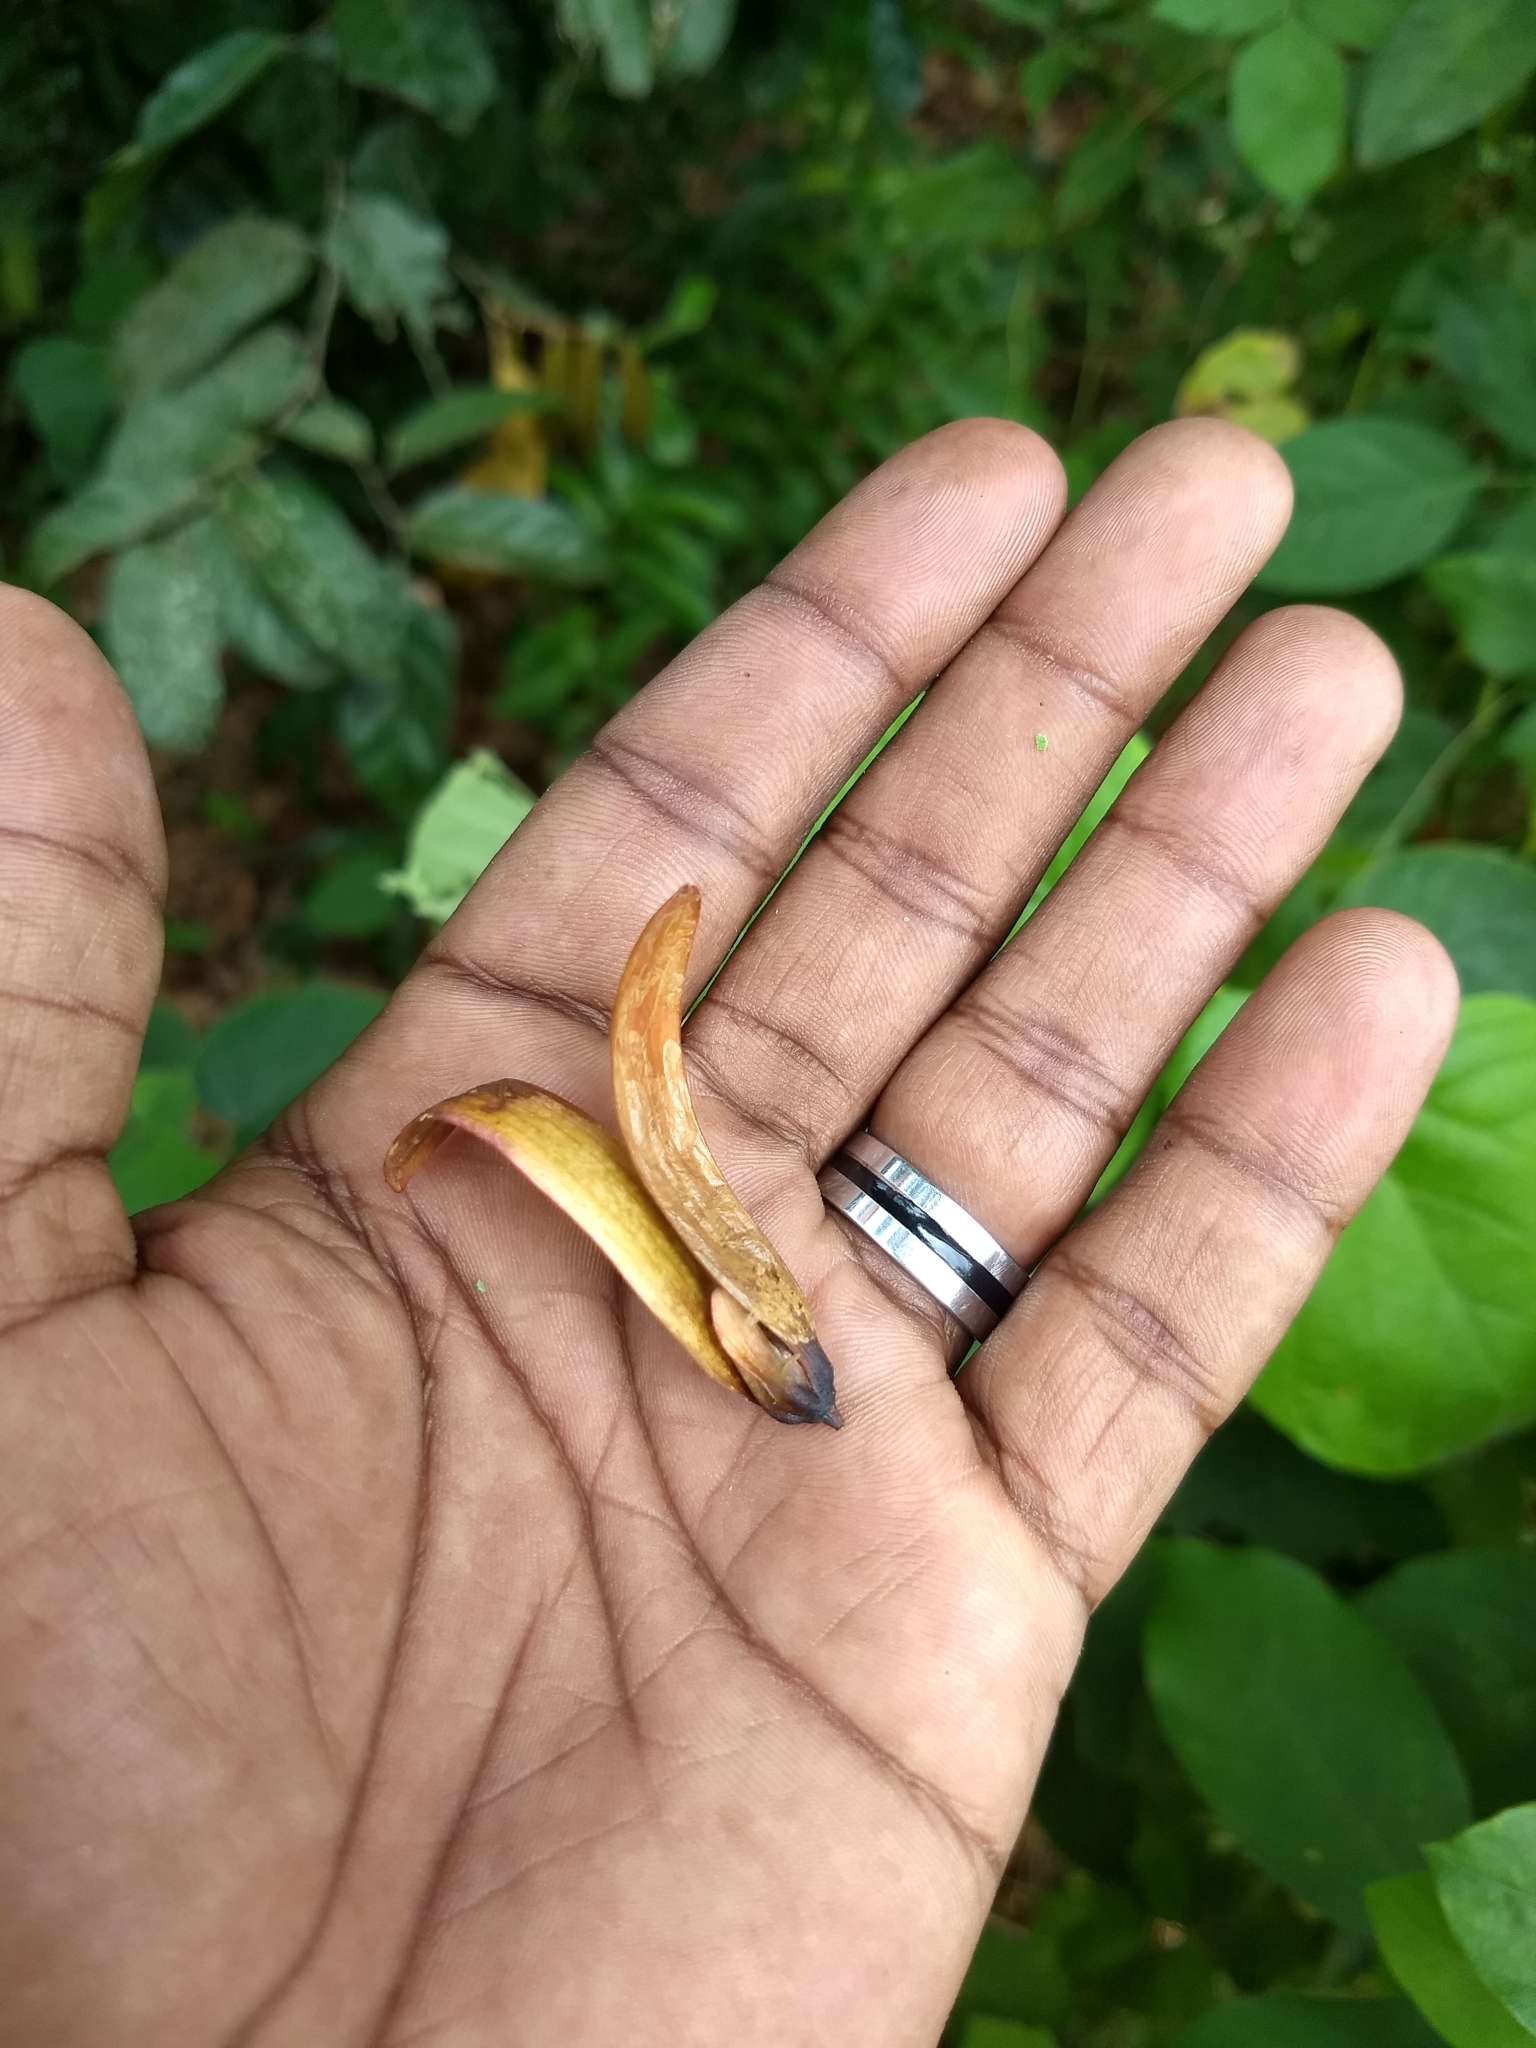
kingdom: Plantae
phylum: Tracheophyta
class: Magnoliopsida
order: Malvales
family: Dipterocarpaceae
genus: Hopea
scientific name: Hopea ponga
